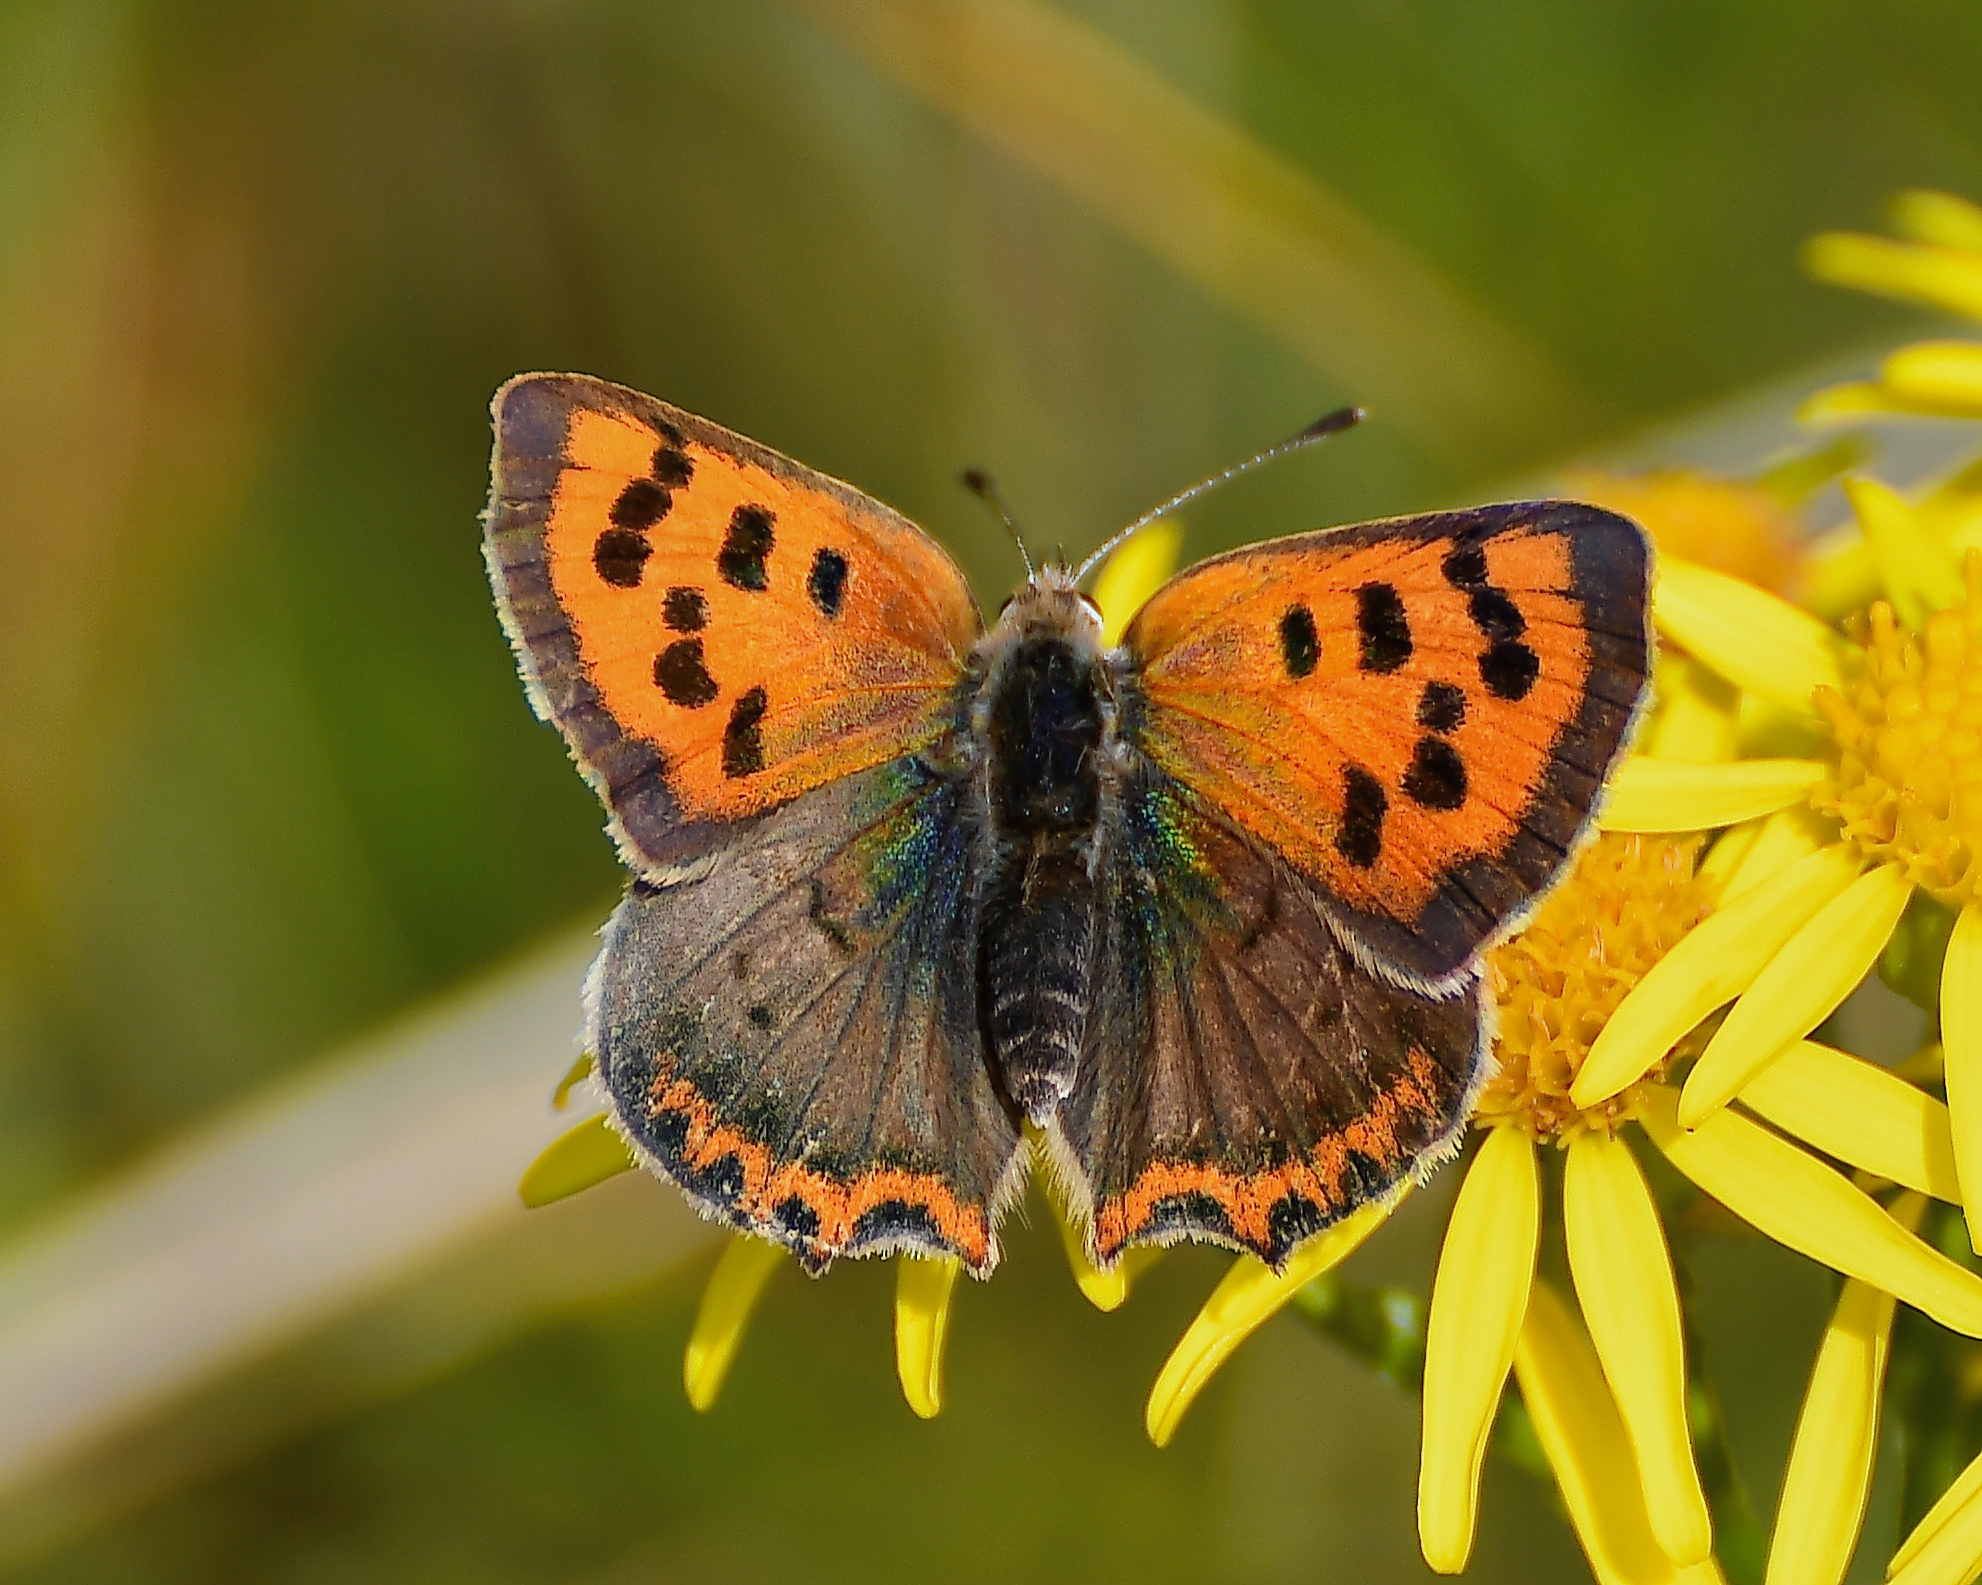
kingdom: Animalia
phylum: Arthropoda
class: Insecta
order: Lepidoptera
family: Lycaenidae
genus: Lycaena
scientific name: Lycaena phlaeas
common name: Small copper
